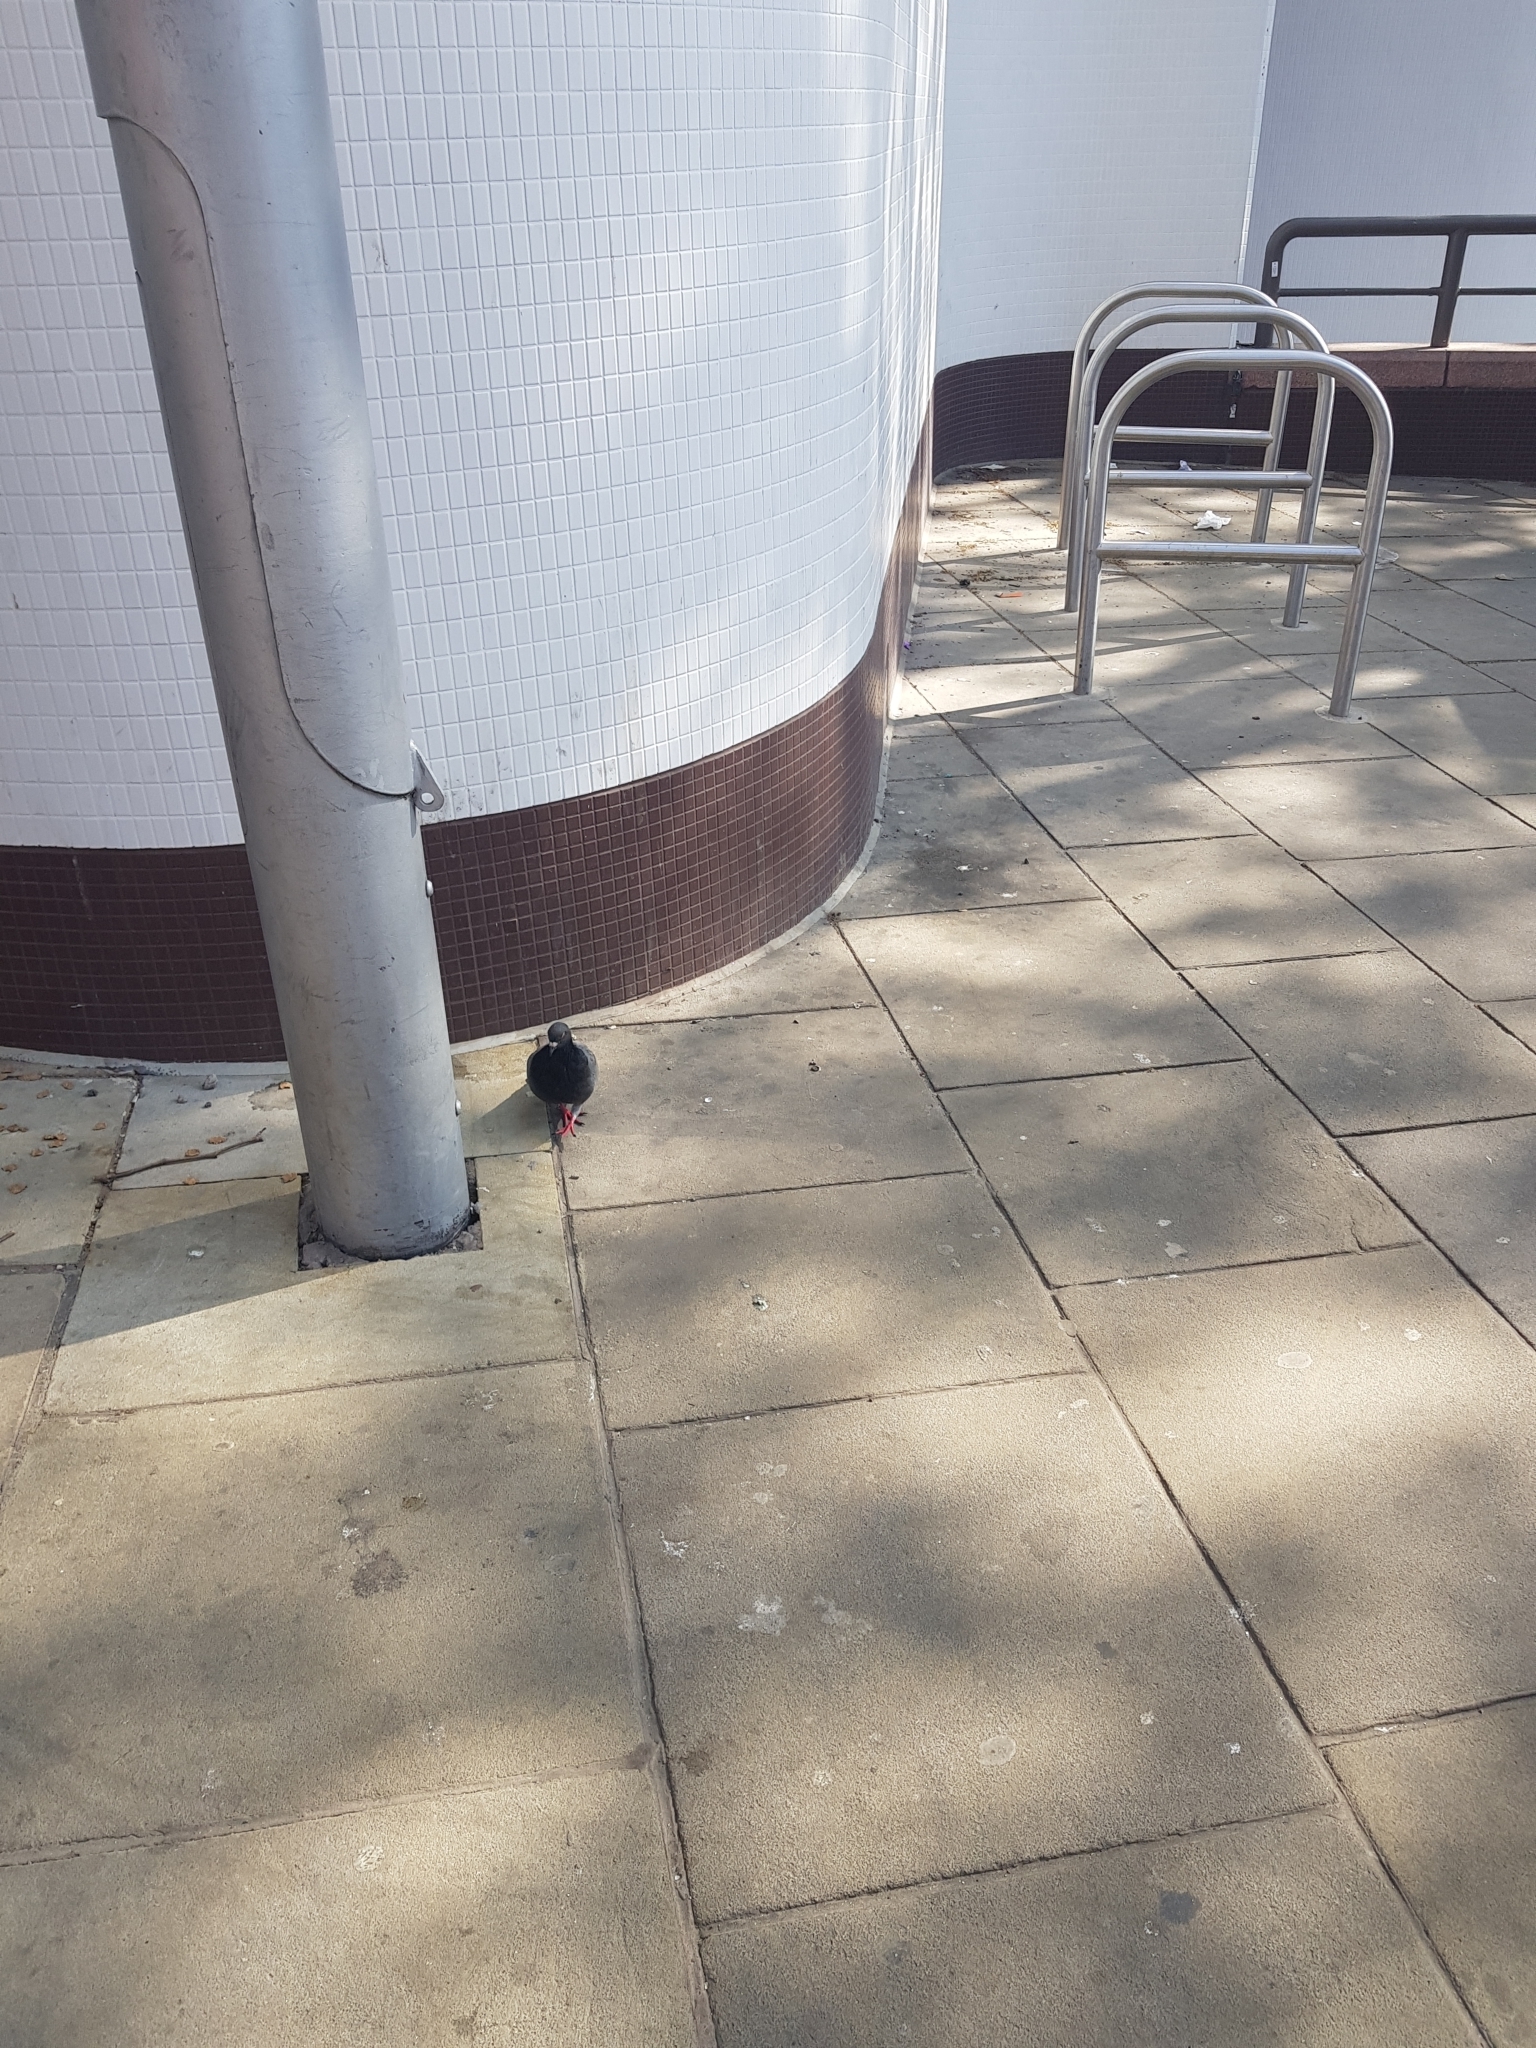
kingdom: Animalia
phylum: Chordata
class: Aves
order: Columbiformes
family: Columbidae
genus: Columba
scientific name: Columba livia
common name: Rock pigeon
